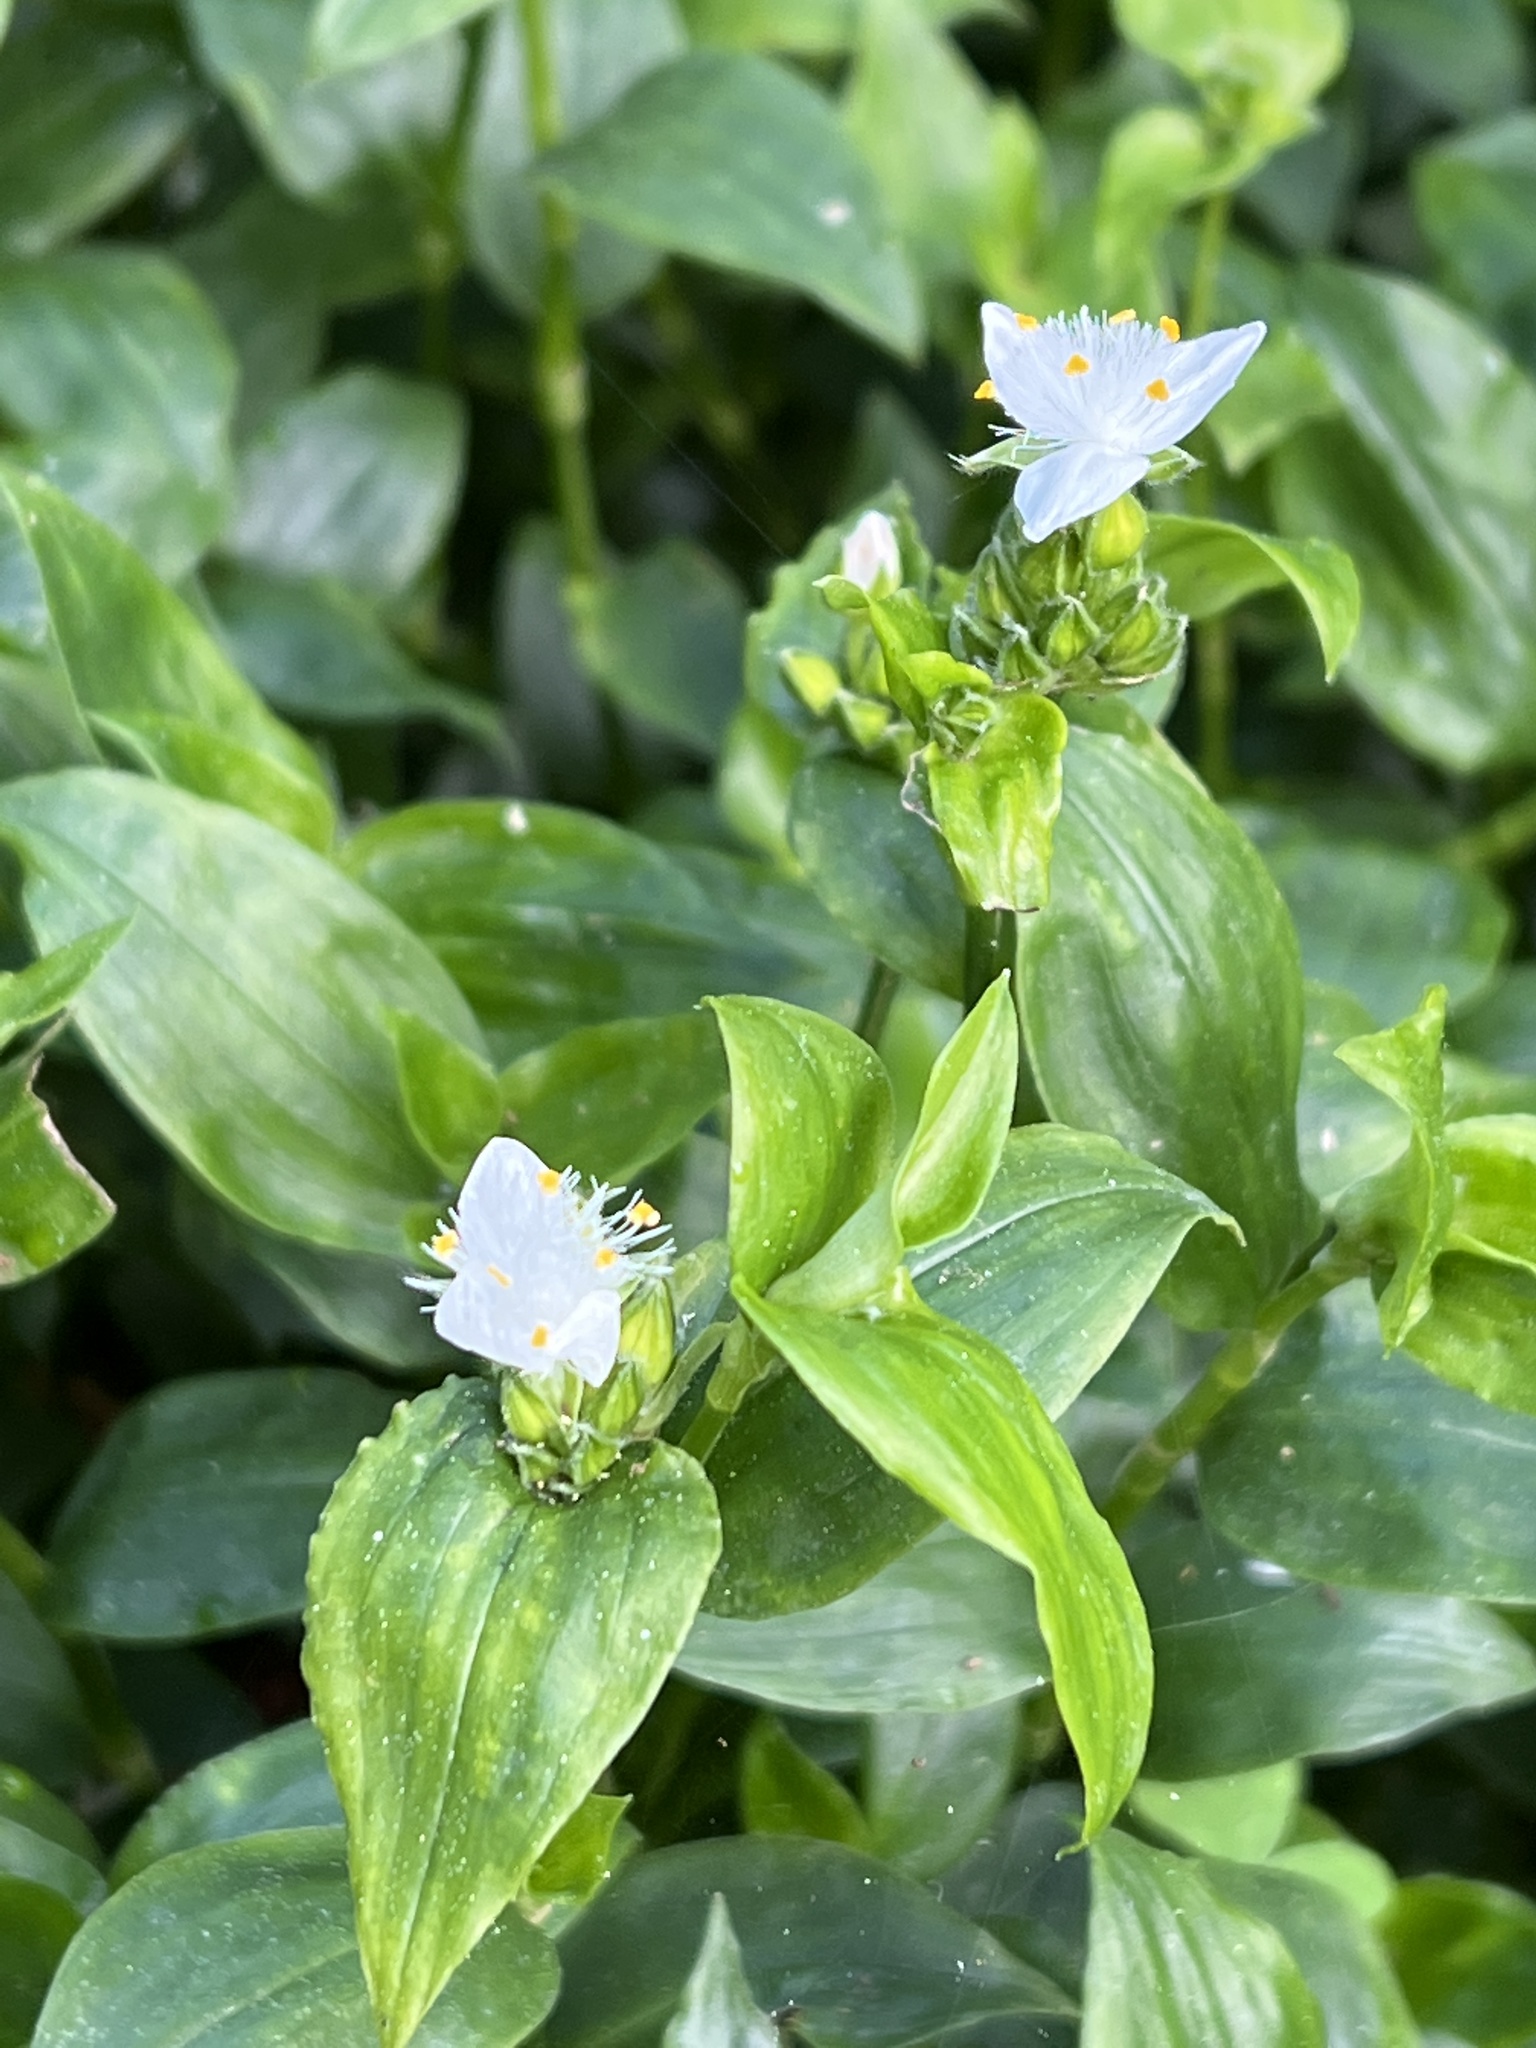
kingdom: Plantae
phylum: Tracheophyta
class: Liliopsida
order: Commelinales
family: Commelinaceae
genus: Tradescantia
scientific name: Tradescantia fluminensis
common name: Wandering-jew
